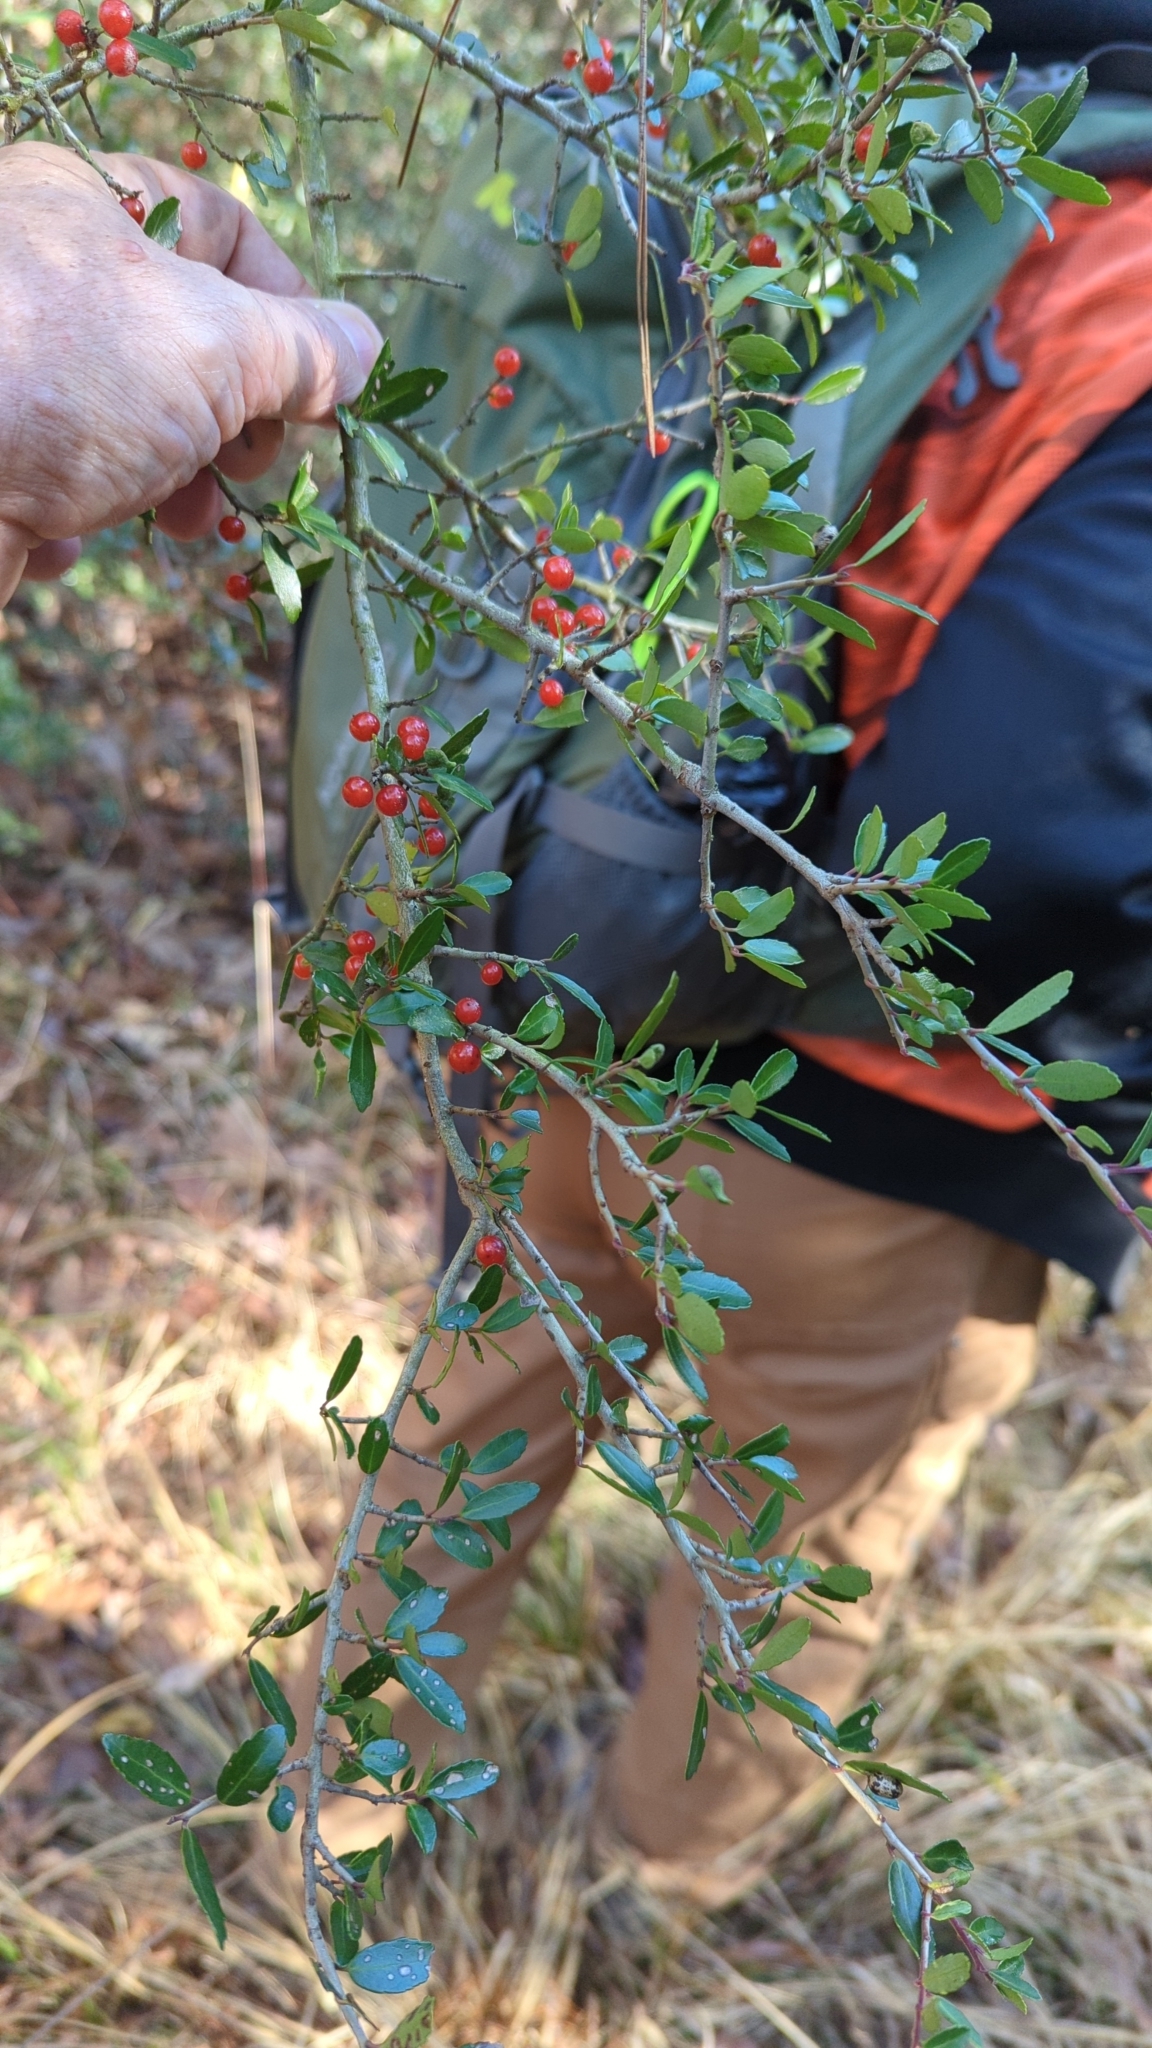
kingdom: Plantae
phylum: Tracheophyta
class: Magnoliopsida
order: Aquifoliales
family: Aquifoliaceae
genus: Ilex
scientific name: Ilex vomitoria
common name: Yaupon holly
